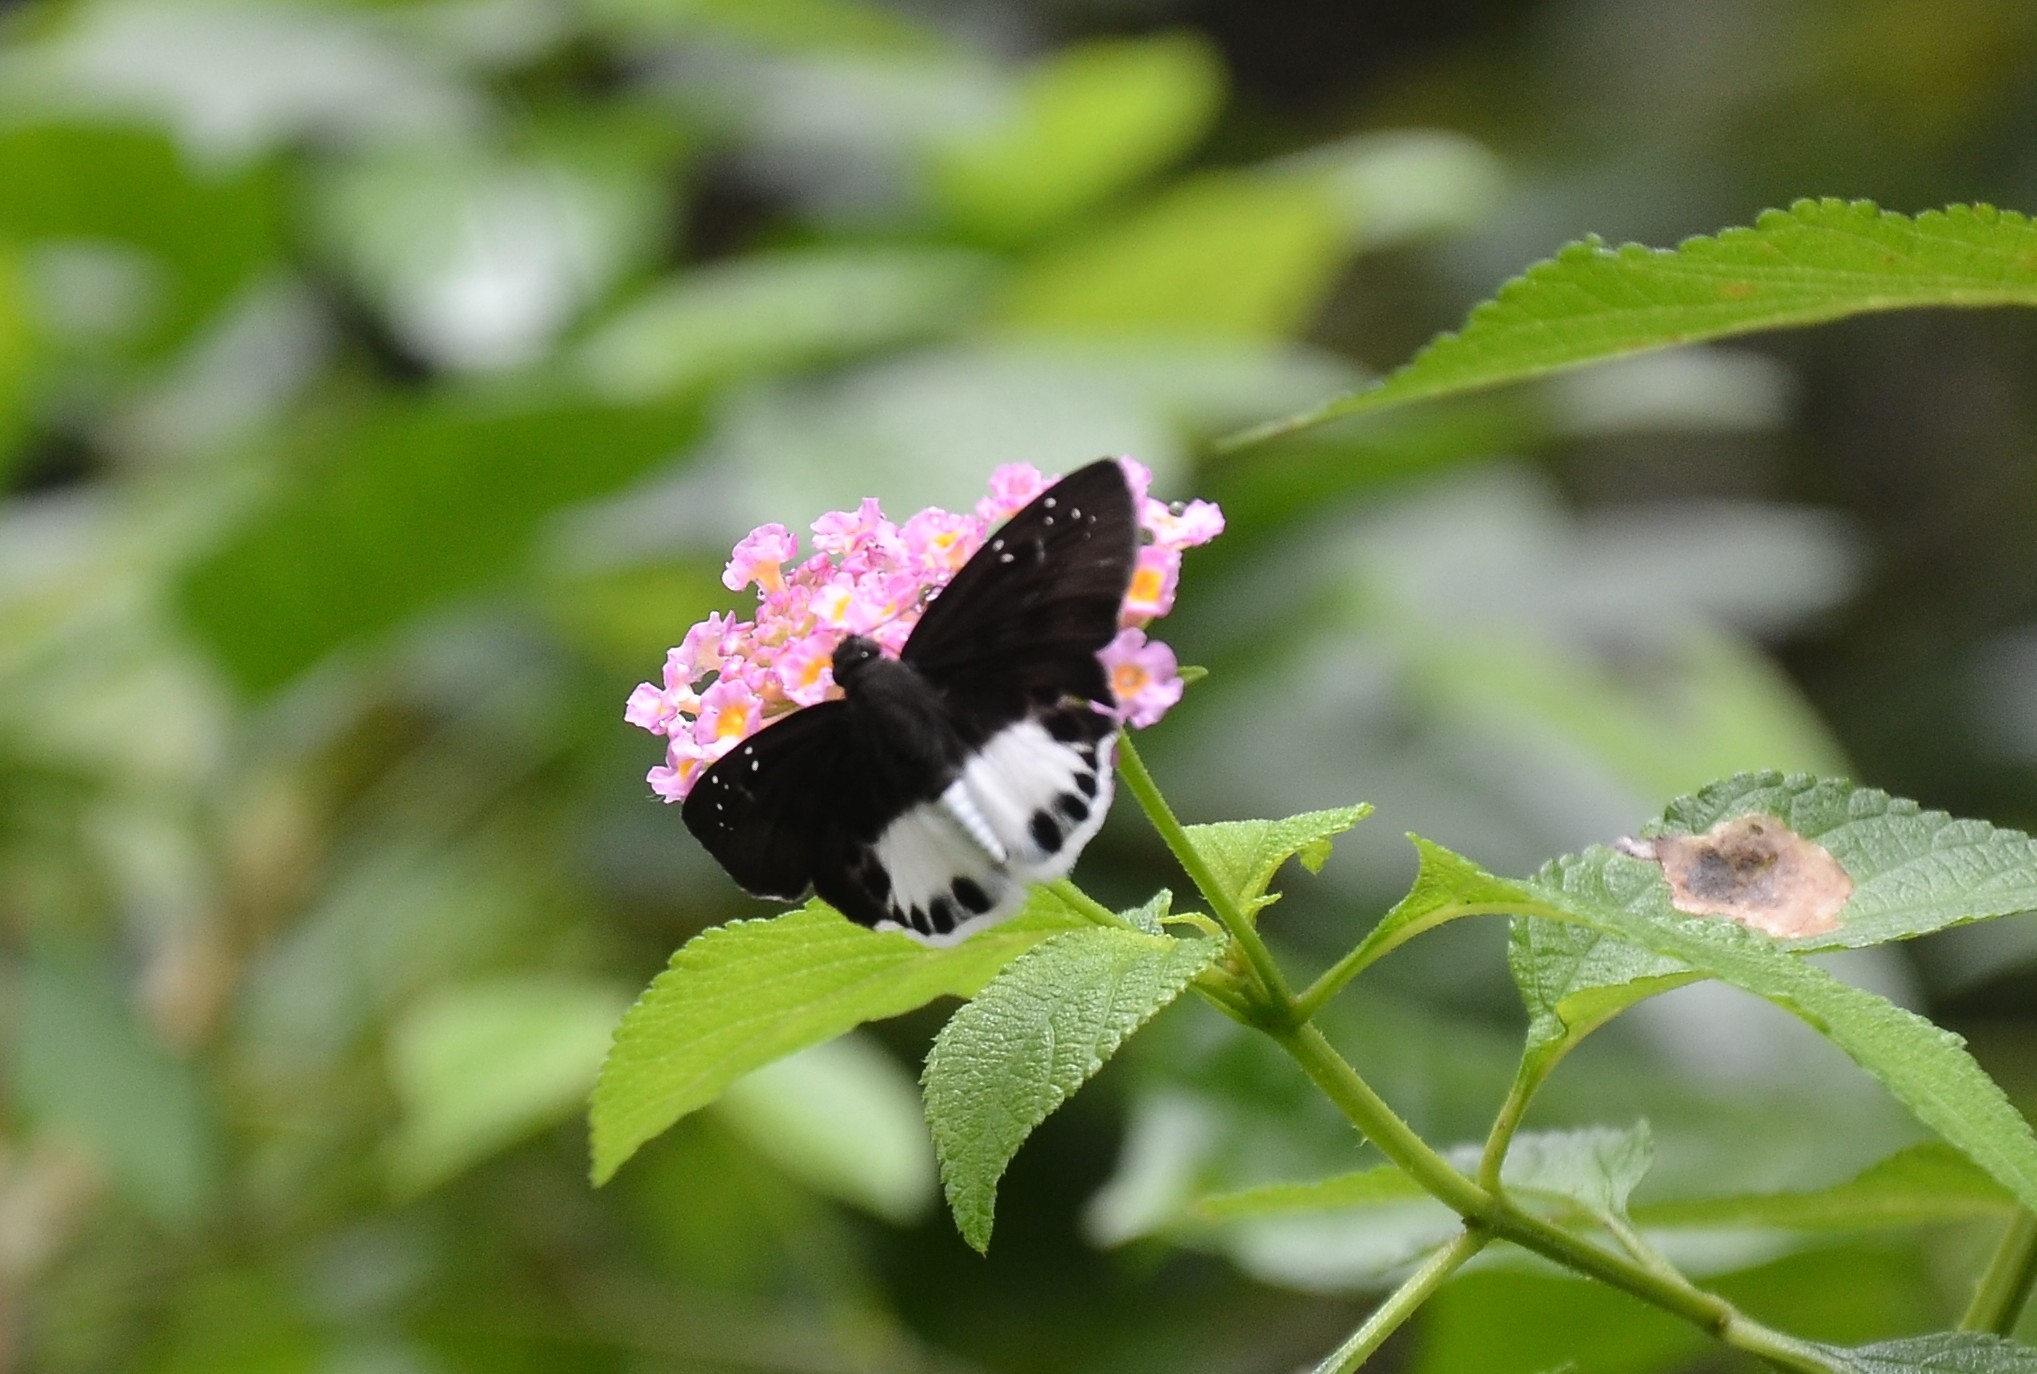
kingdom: Animalia
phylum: Arthropoda
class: Insecta
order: Lepidoptera
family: Hesperiidae
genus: Tagiades
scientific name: Tagiades litigiosa
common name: Water snow flat
